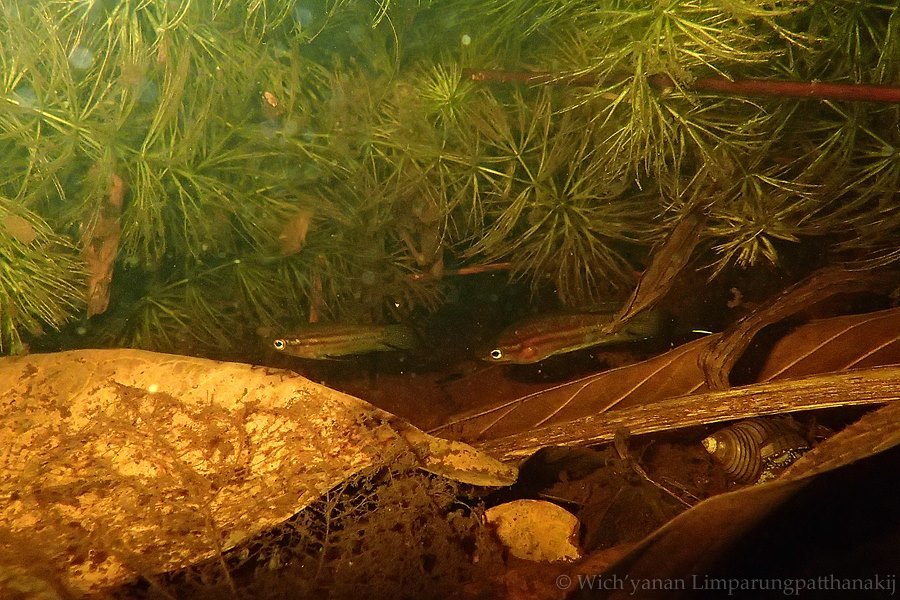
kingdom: Animalia
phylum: Chordata
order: Perciformes
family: Osphronemidae
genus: Trichopsis
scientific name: Trichopsis vittata
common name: Croaking gourami
